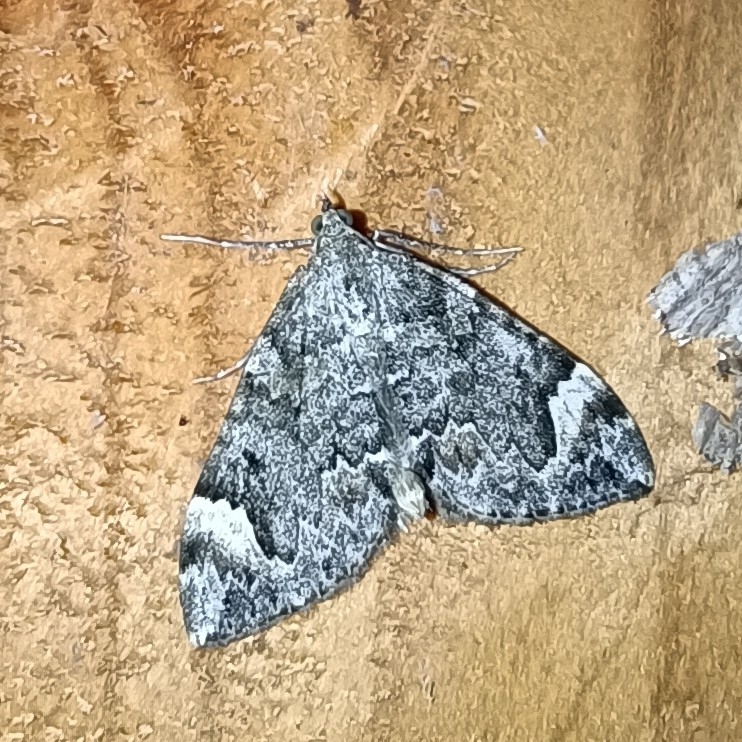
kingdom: Animalia
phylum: Arthropoda
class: Insecta
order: Lepidoptera
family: Geometridae
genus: Dysstroma
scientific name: Dysstroma citrata
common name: Dark marbled carpet
